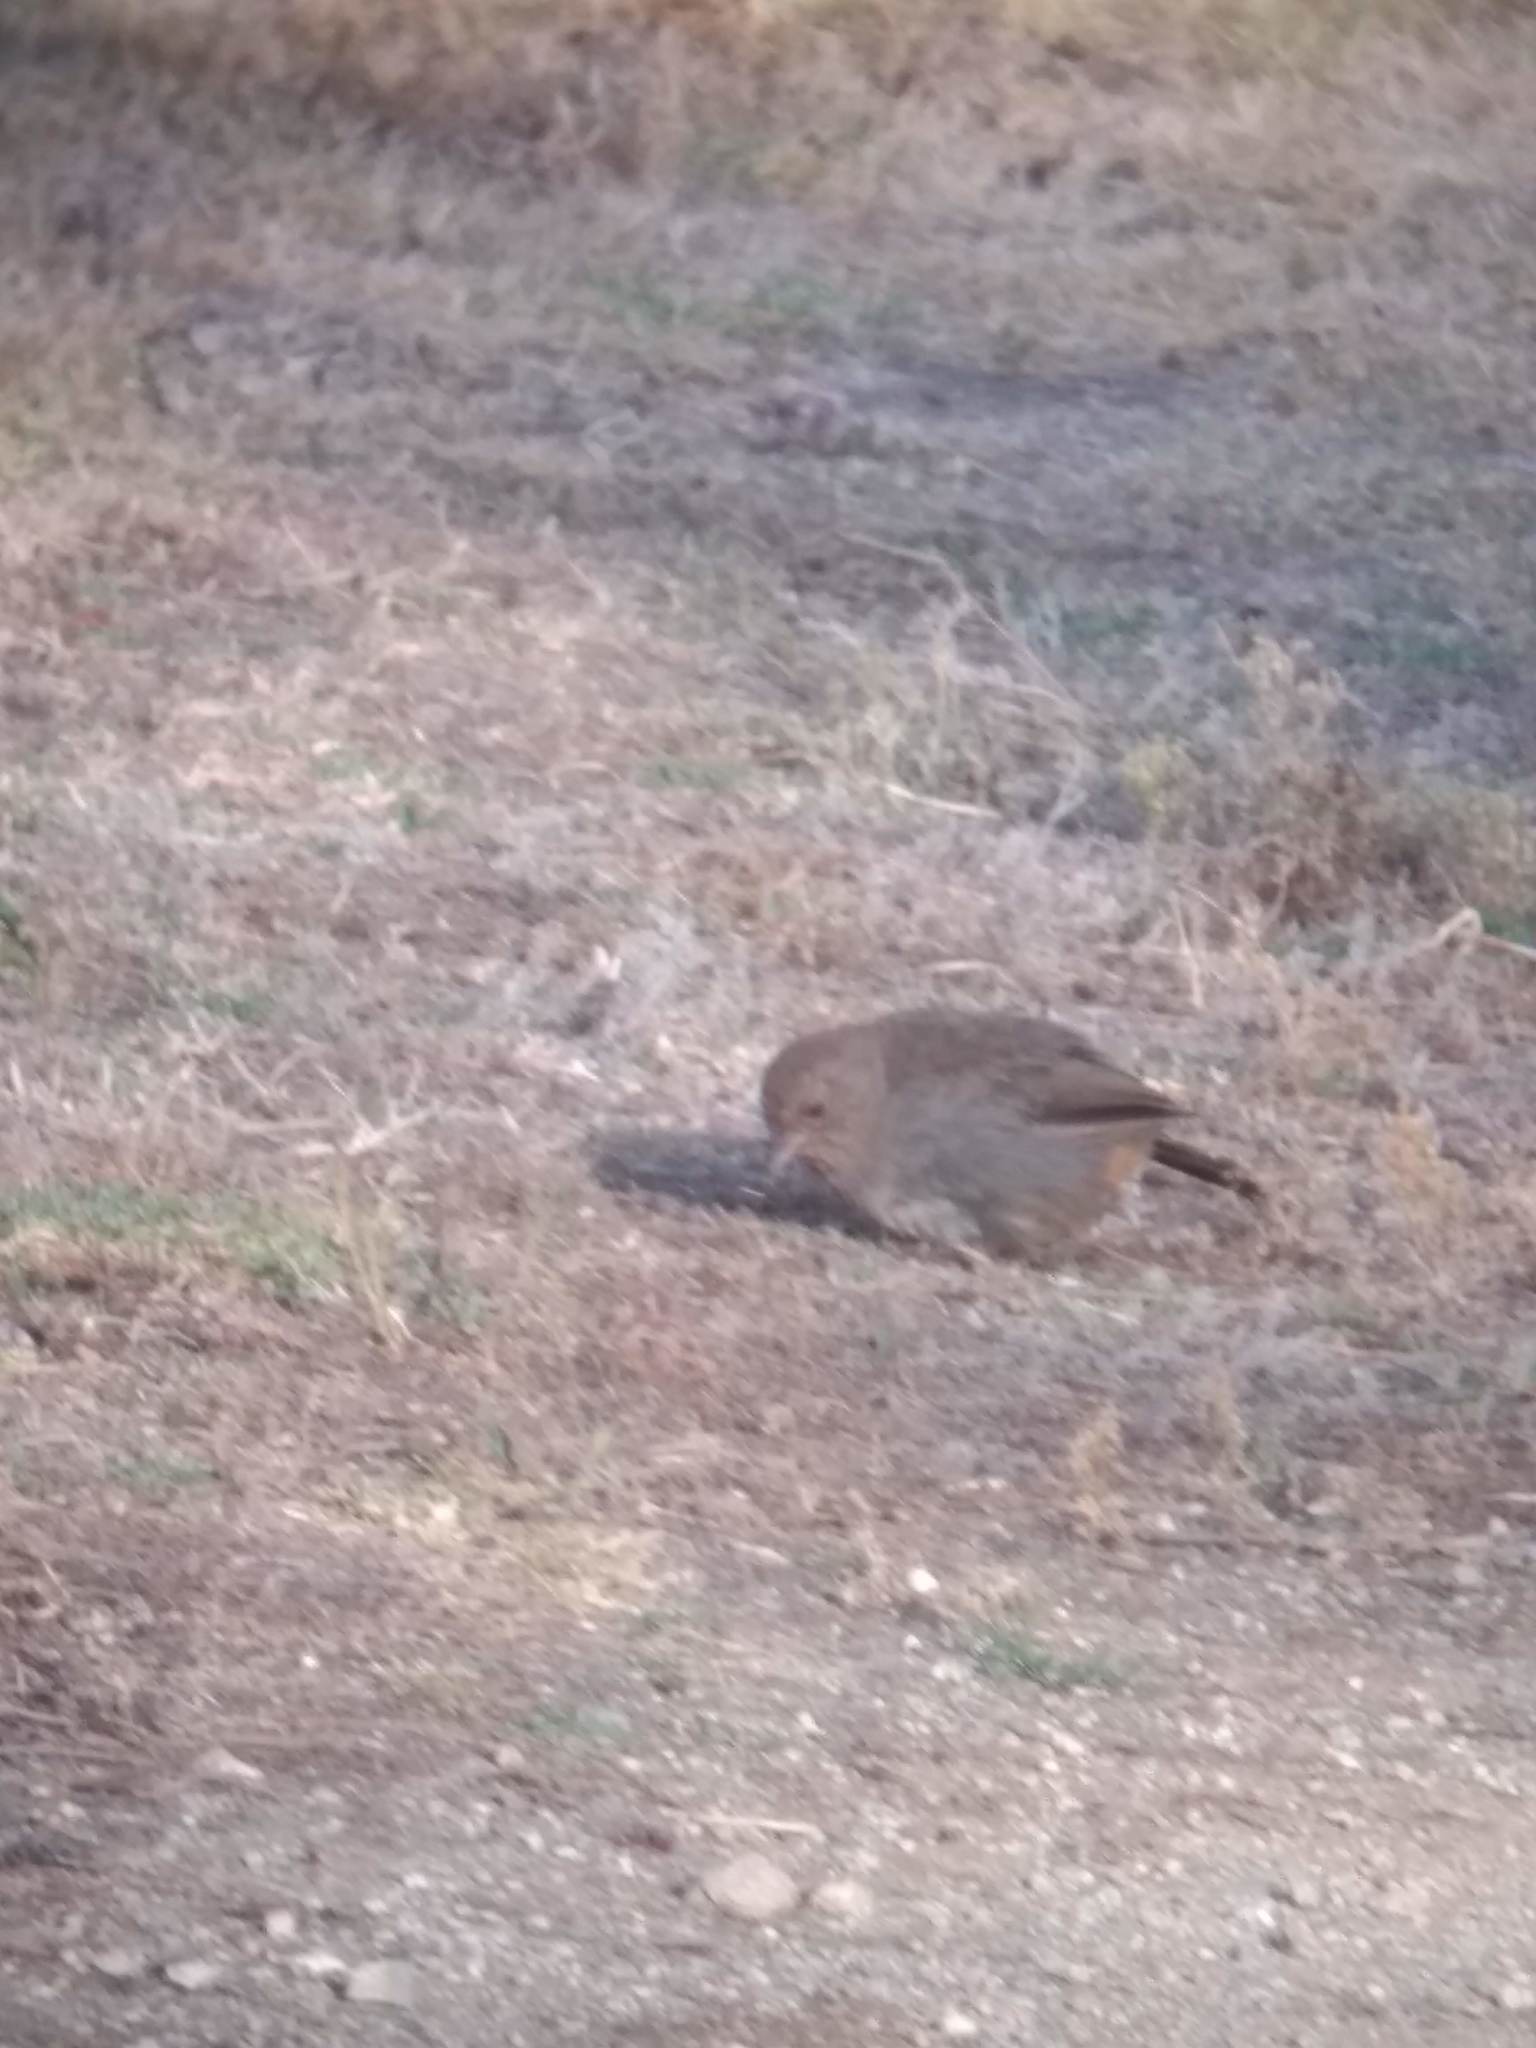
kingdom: Animalia
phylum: Chordata
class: Aves
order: Passeriformes
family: Passerellidae
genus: Melozone
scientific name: Melozone crissalis
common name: California towhee
